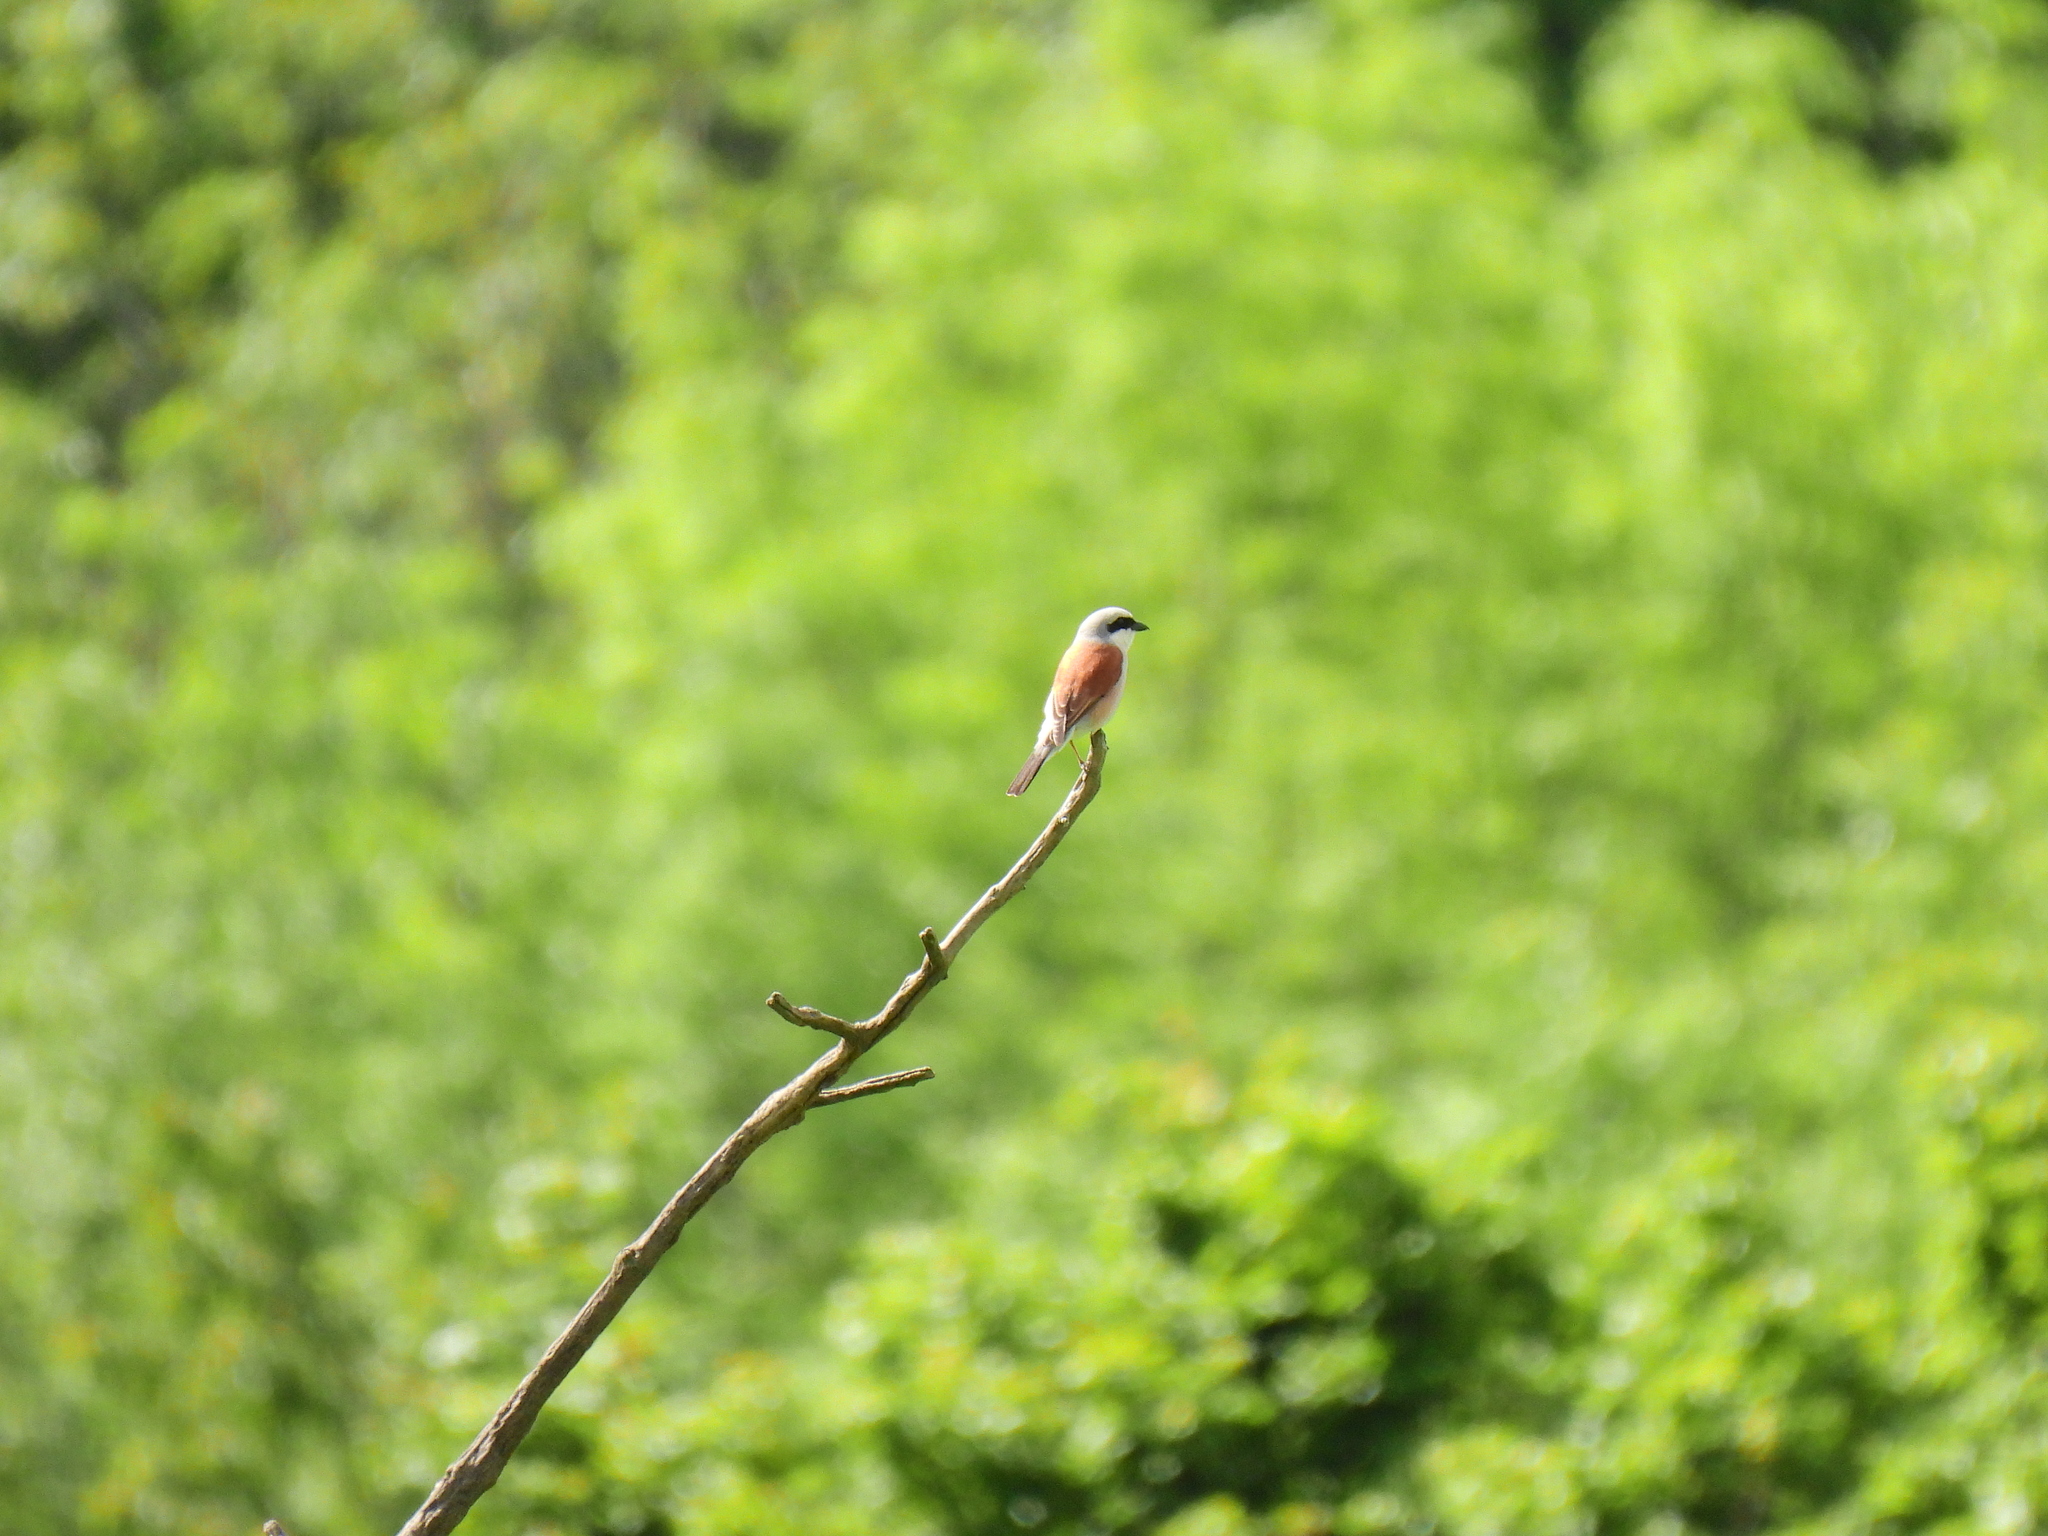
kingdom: Animalia
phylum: Chordata
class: Aves
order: Passeriformes
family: Laniidae
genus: Lanius
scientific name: Lanius collurio
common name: Red-backed shrike
